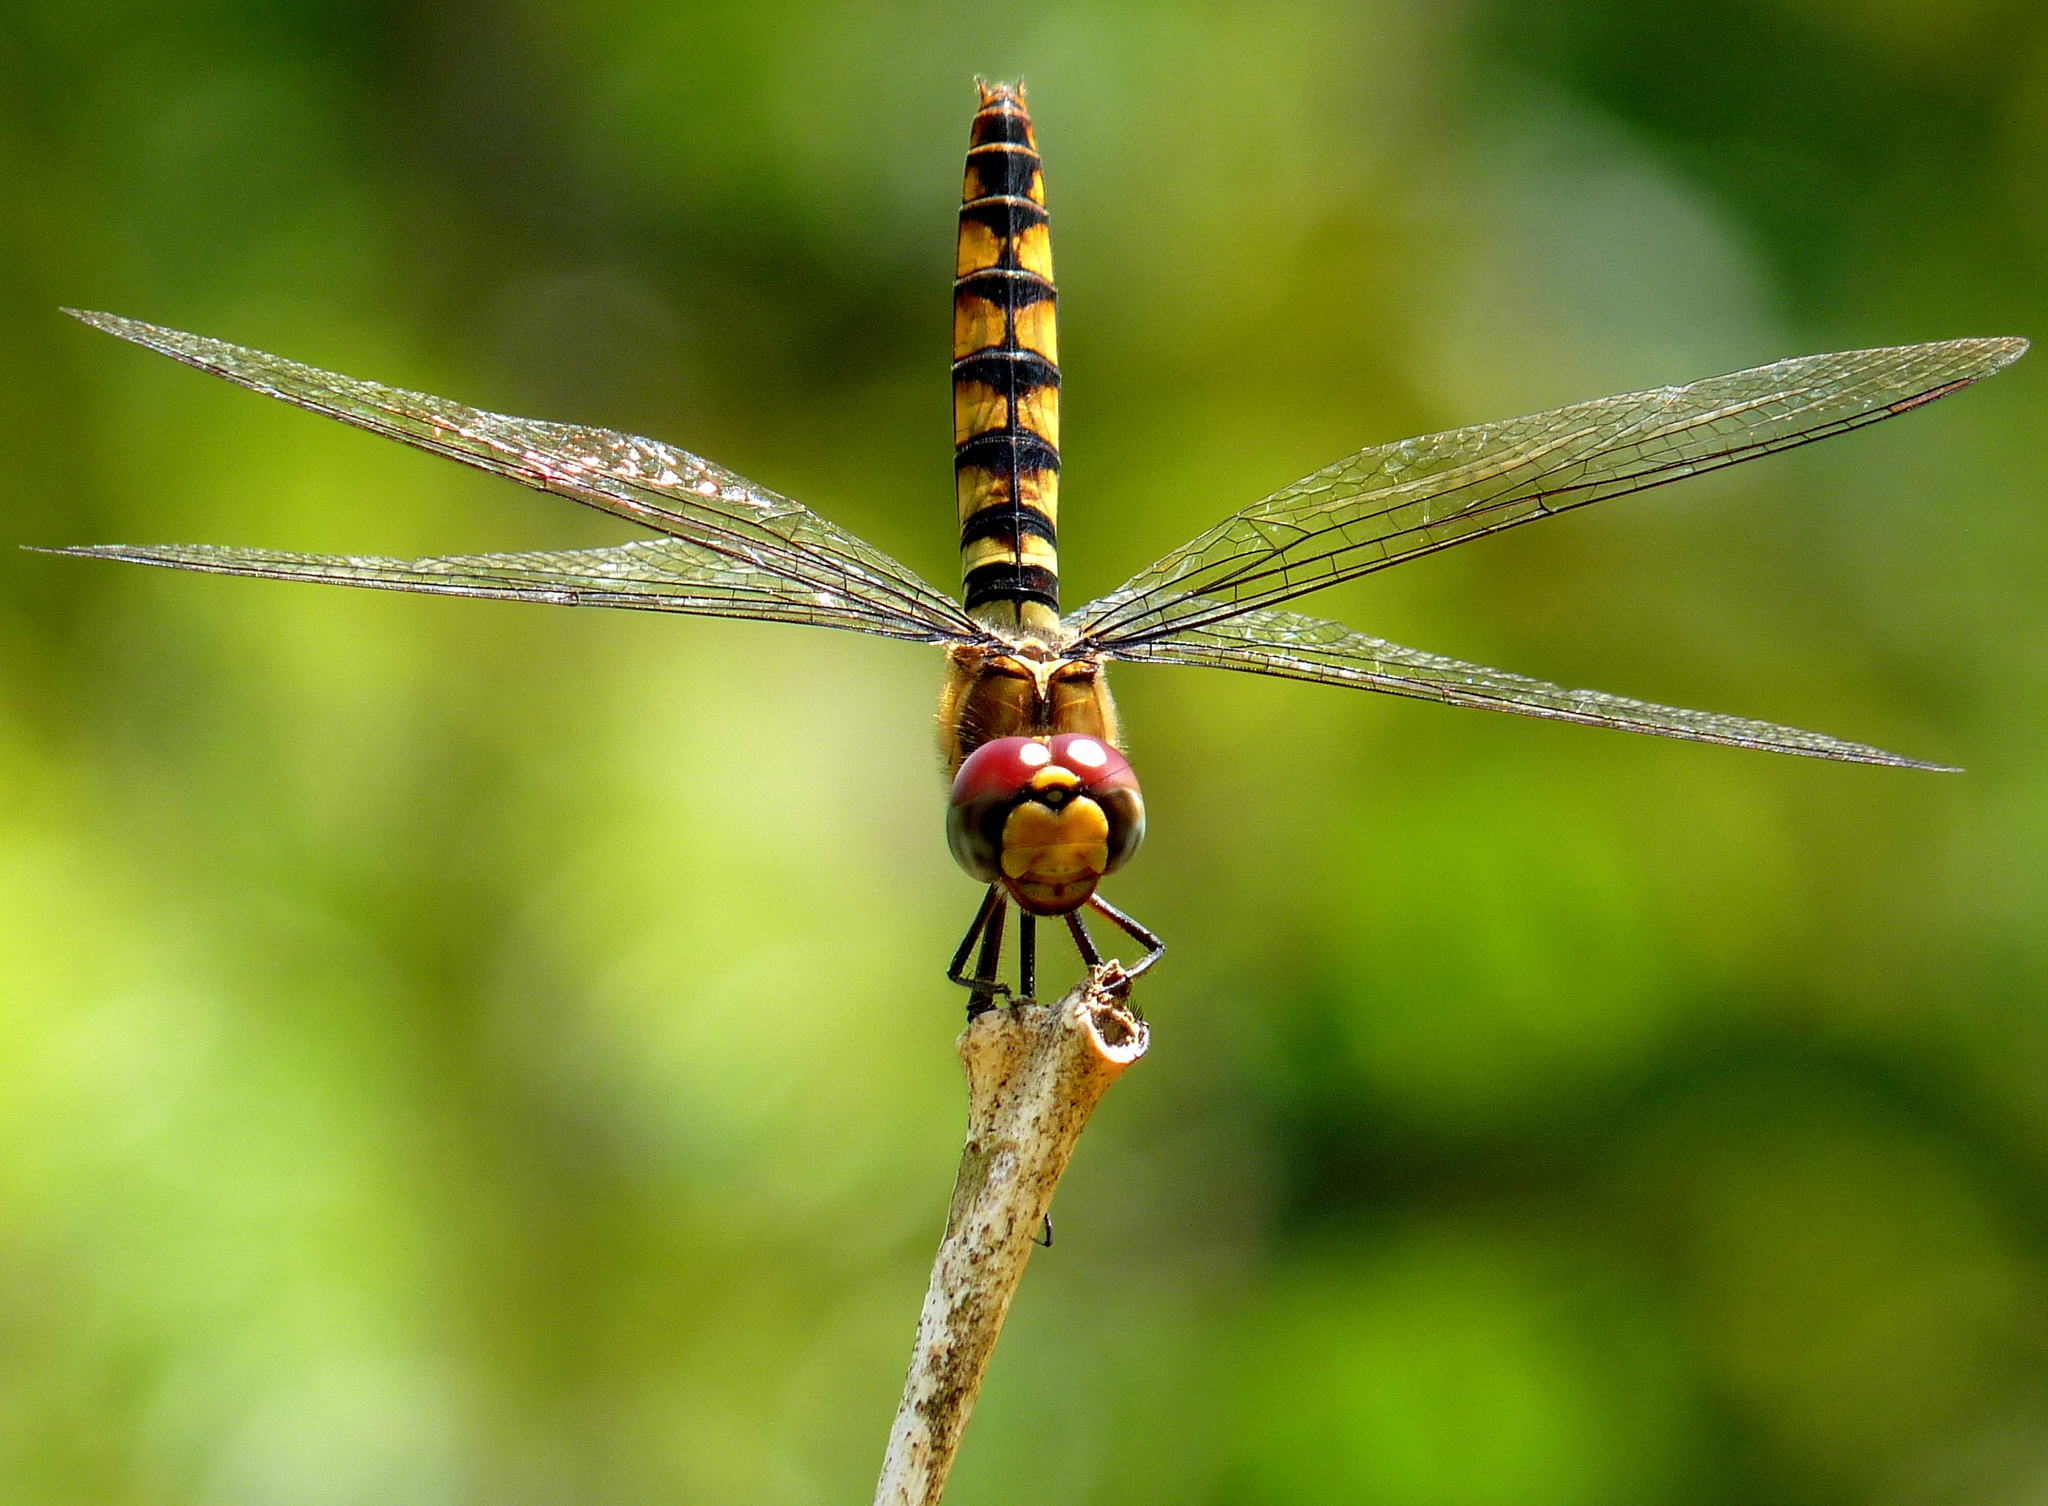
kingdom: Animalia
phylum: Arthropoda
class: Insecta
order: Odonata
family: Libellulidae
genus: Urothemis
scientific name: Urothemis signata
